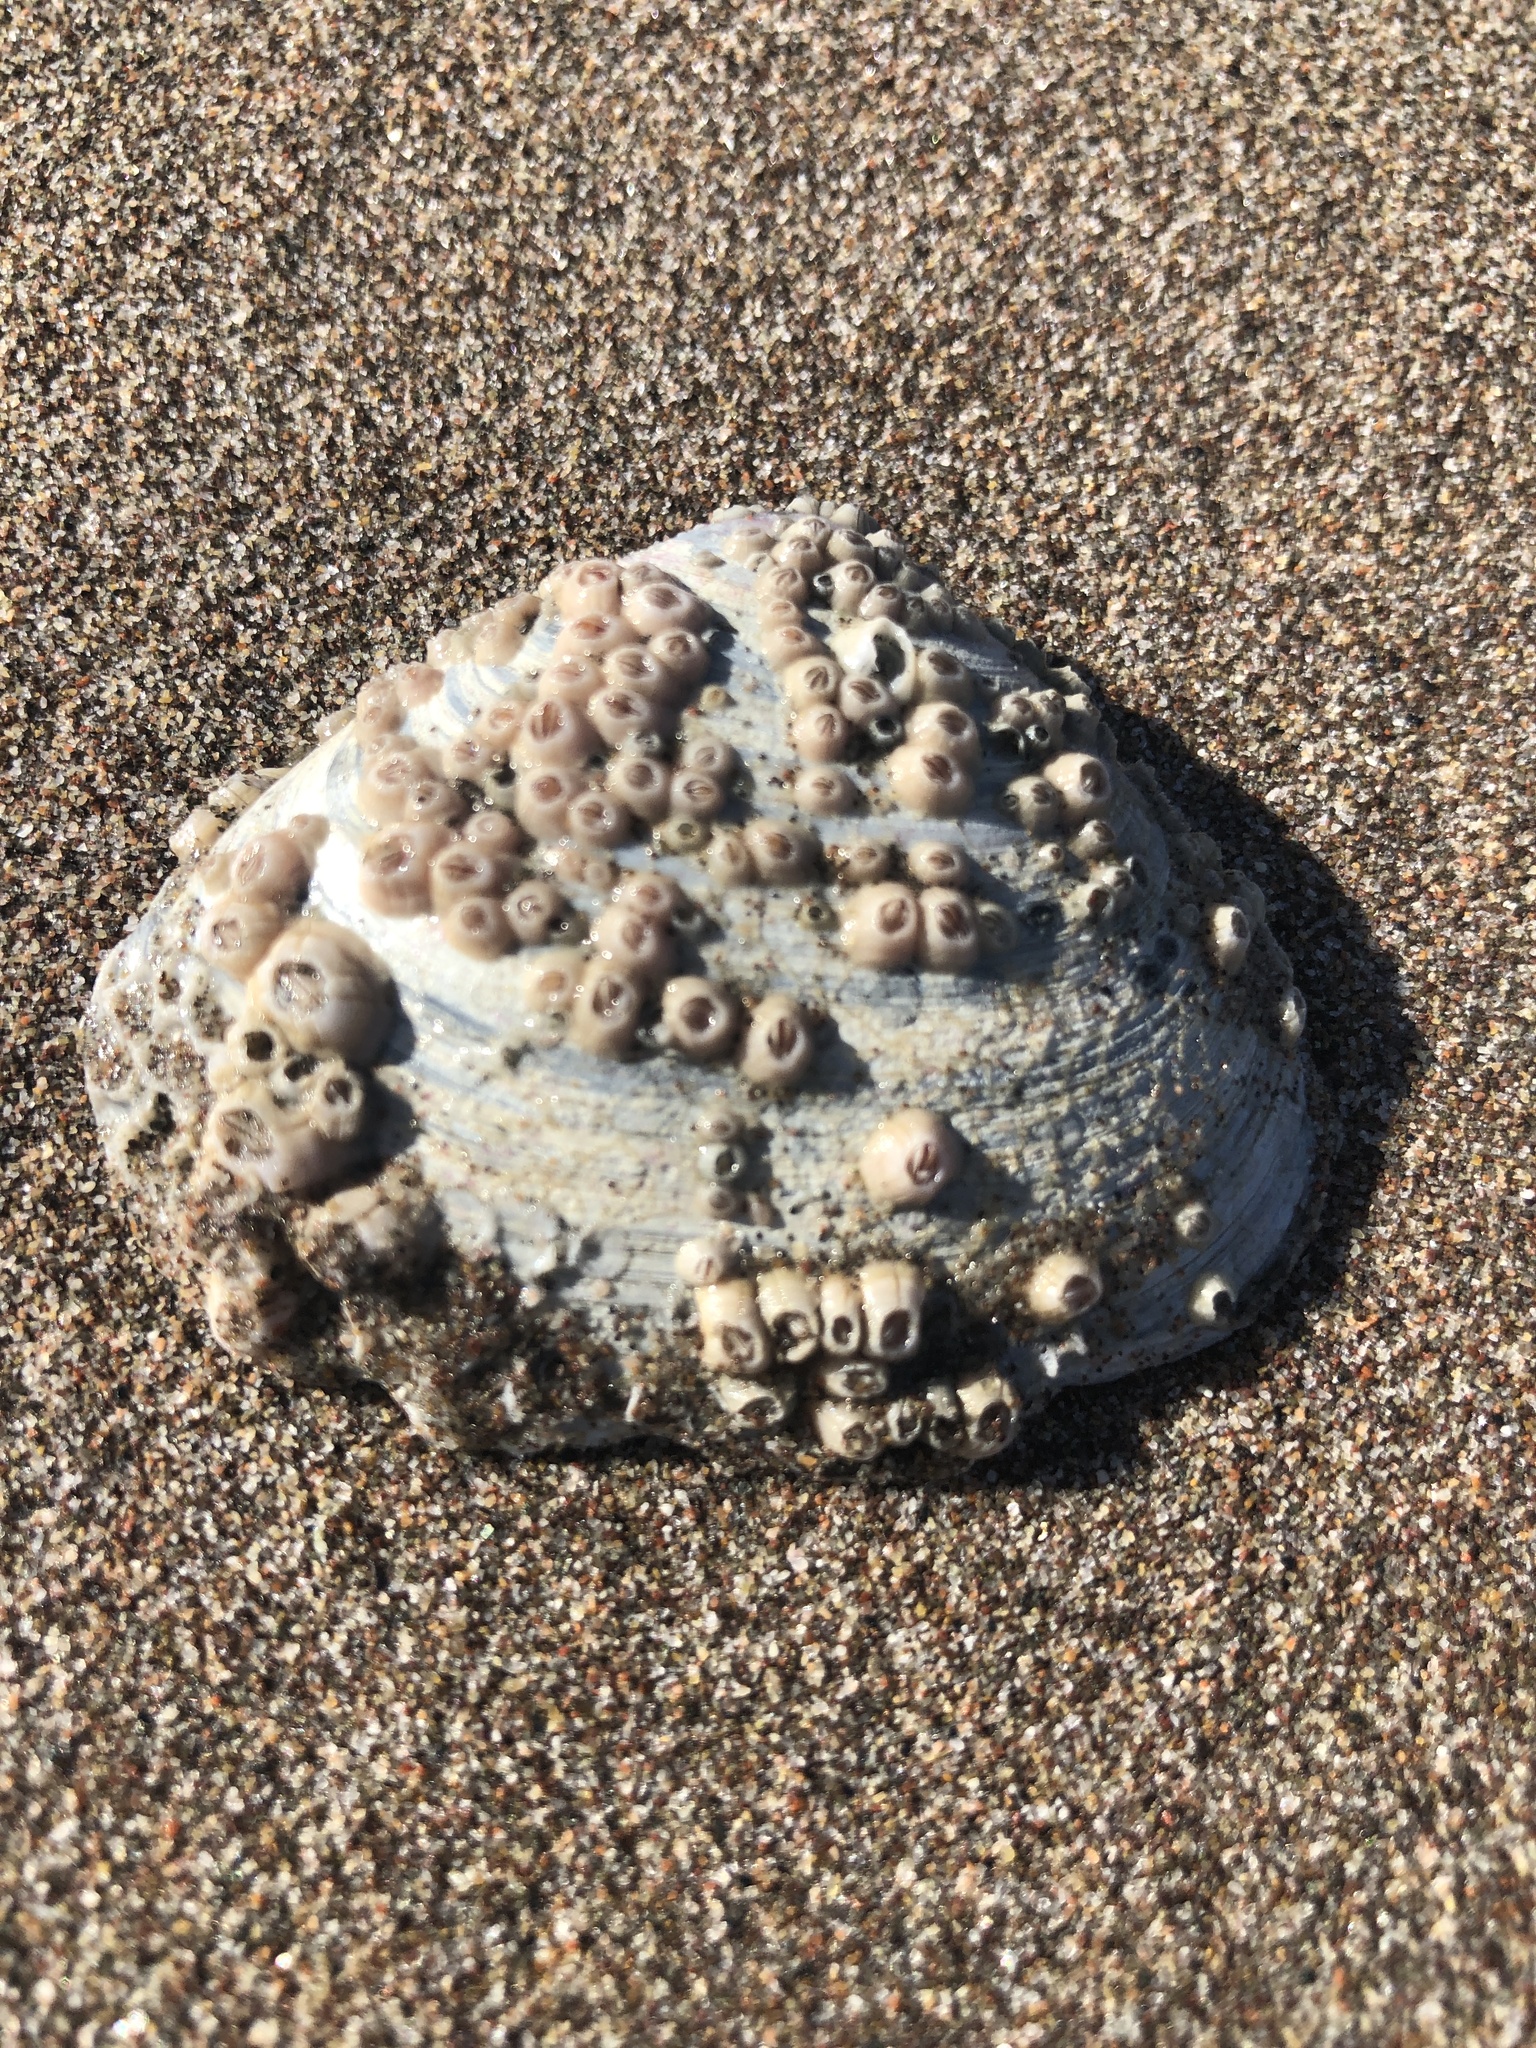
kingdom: Animalia
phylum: Arthropoda
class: Maxillopoda
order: Sessilia
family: Balanidae
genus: Balanus
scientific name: Balanus laevis
